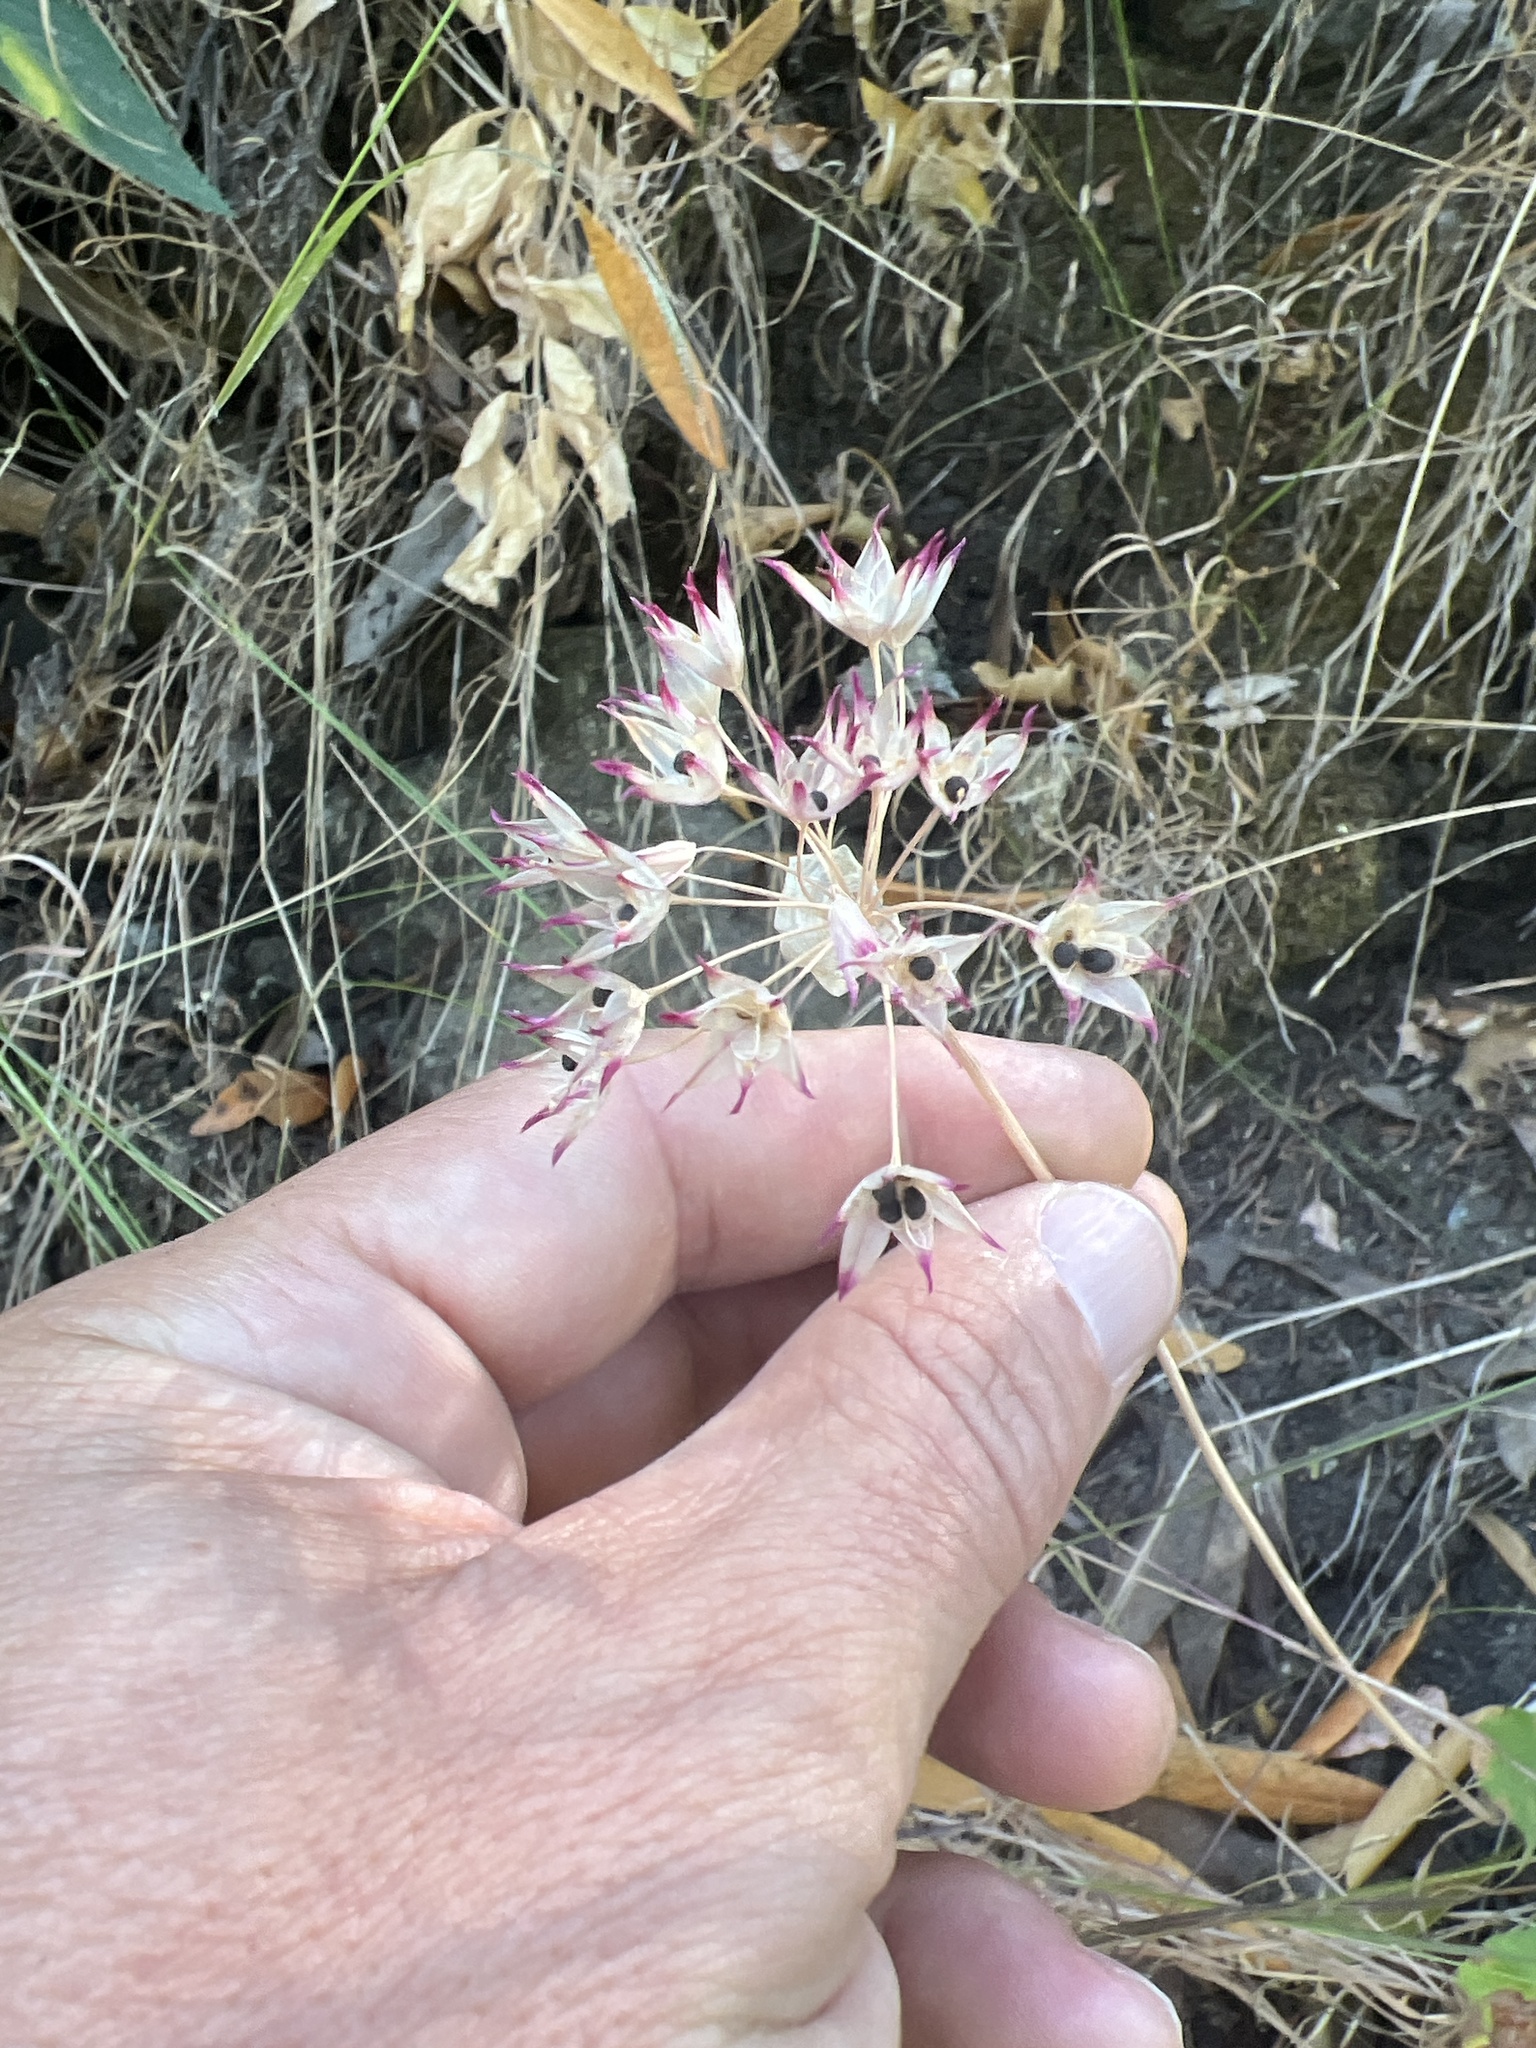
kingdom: Plantae
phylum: Tracheophyta
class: Liliopsida
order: Asparagales
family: Amaryllidaceae
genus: Allium
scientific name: Allium peninsulare
